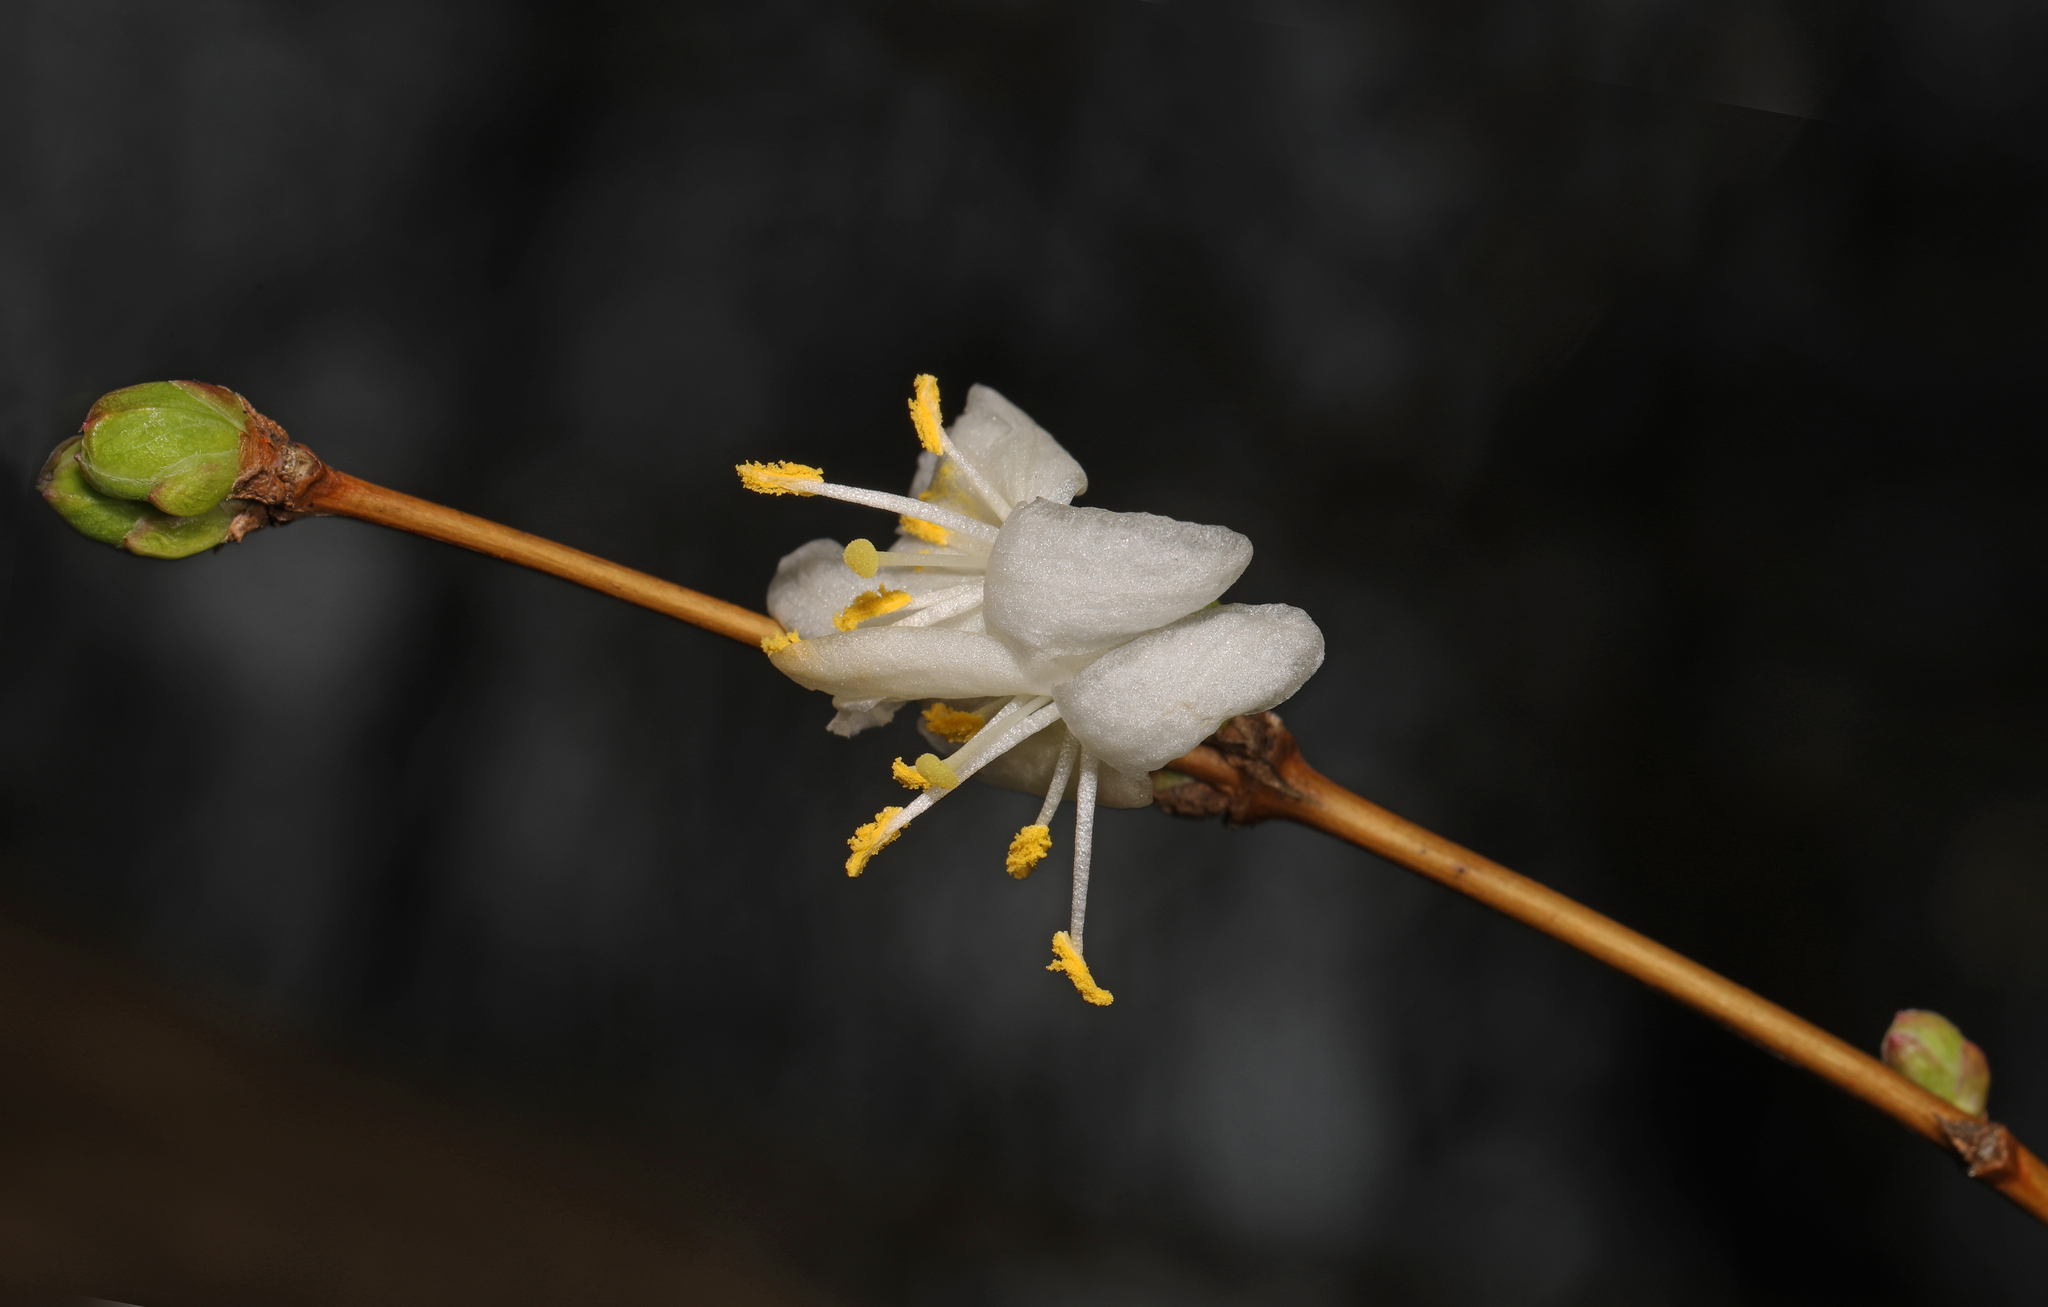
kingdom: Plantae
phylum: Tracheophyta
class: Magnoliopsida
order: Dipsacales
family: Caprifoliaceae
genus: Lonicera
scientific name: Lonicera fragrantissima
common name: Fragrant honeysuckle
